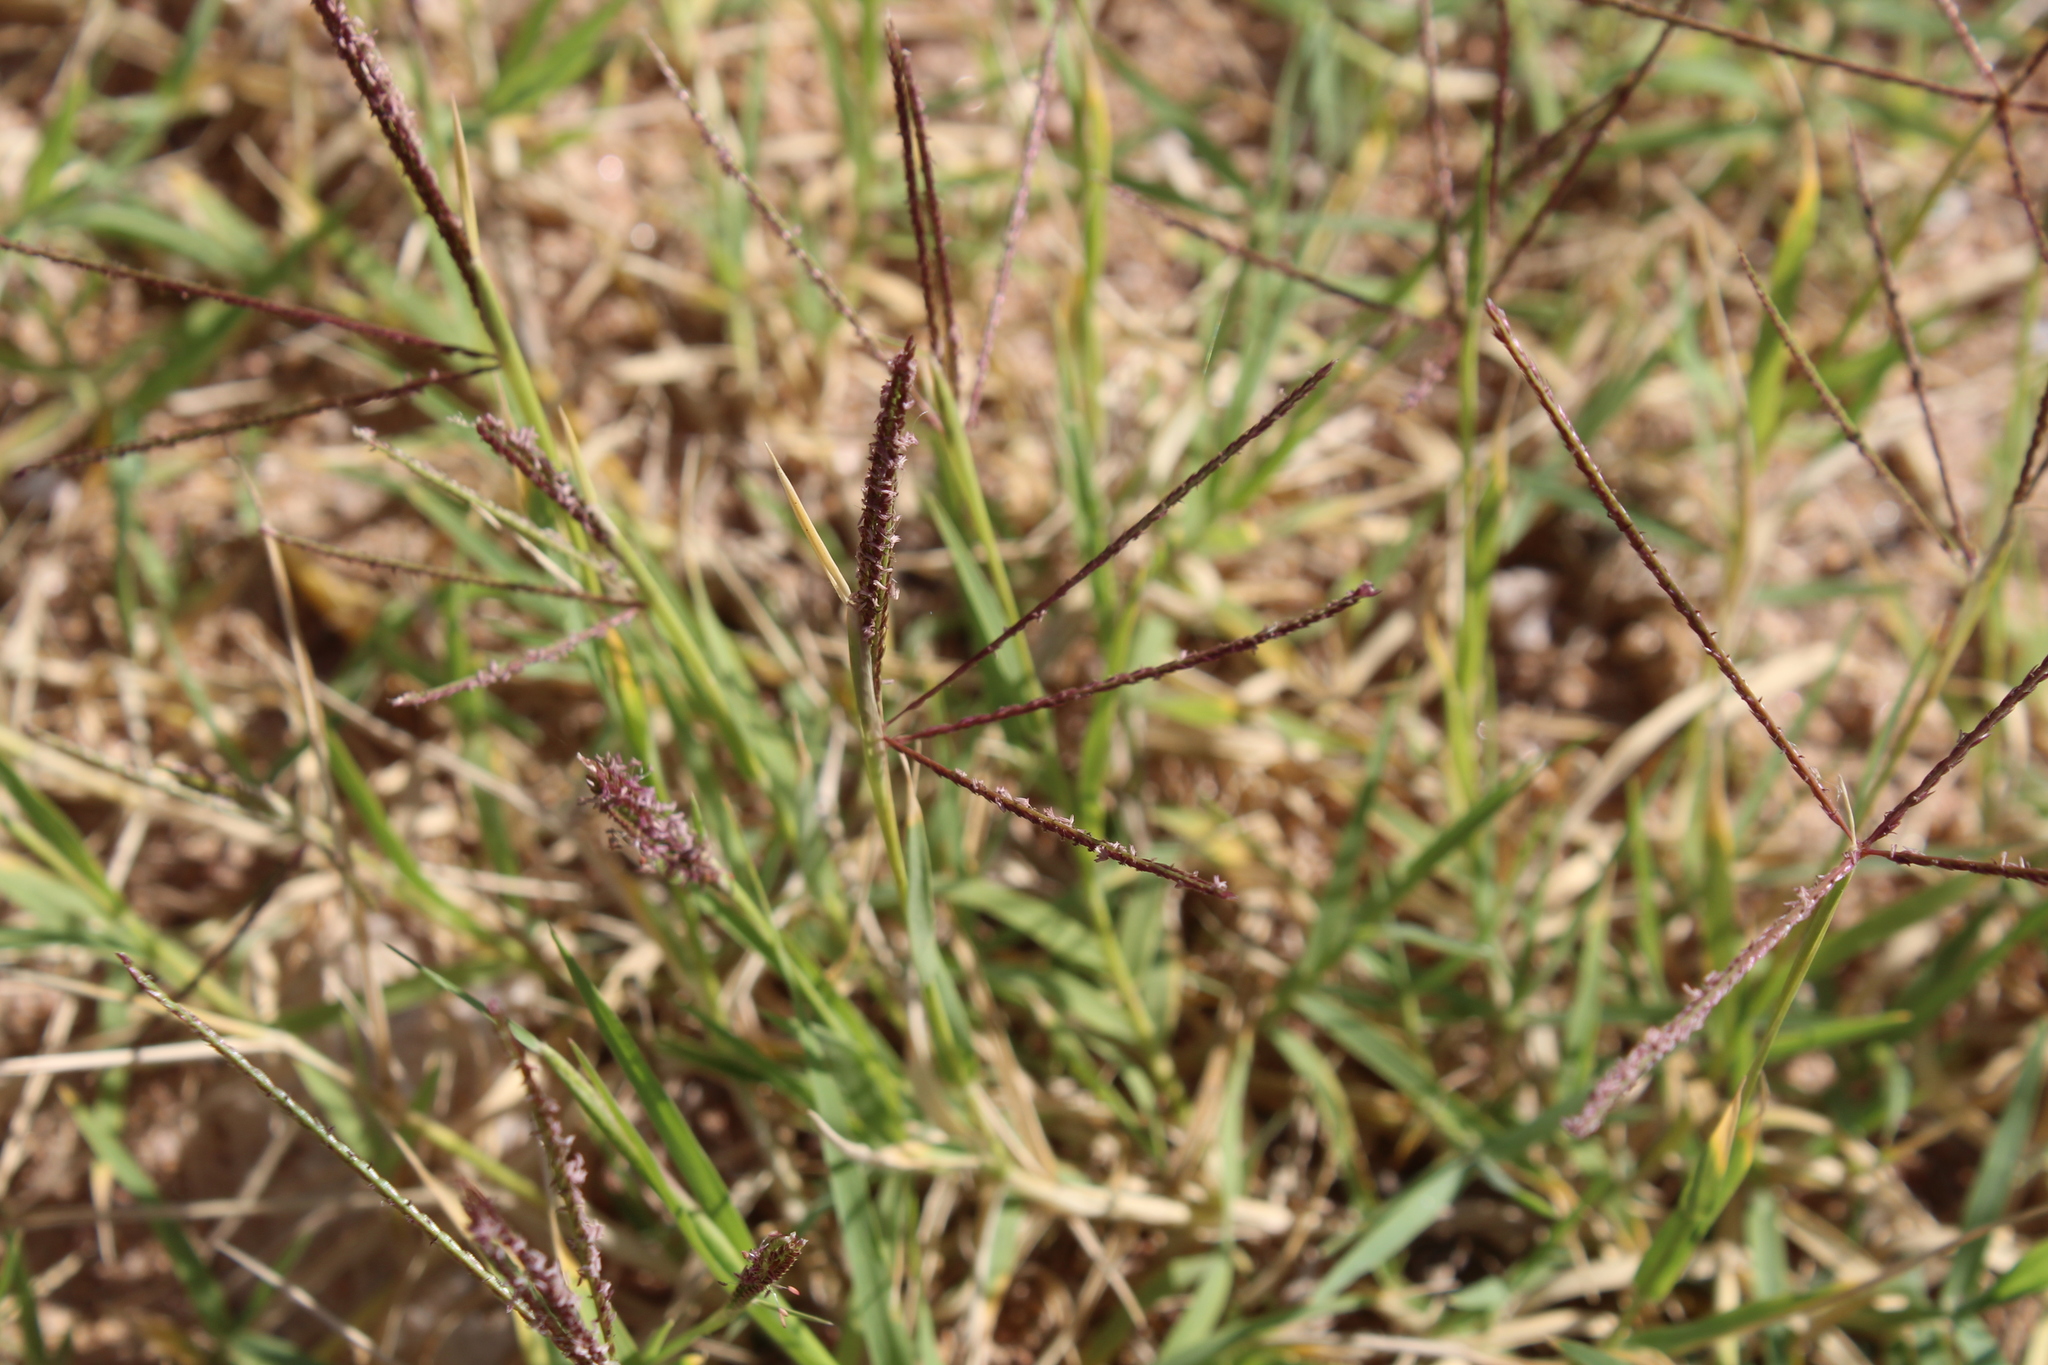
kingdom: Plantae
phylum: Tracheophyta
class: Liliopsida
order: Poales
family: Poaceae
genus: Cynodon
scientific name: Cynodon dactylon
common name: Bermuda grass
